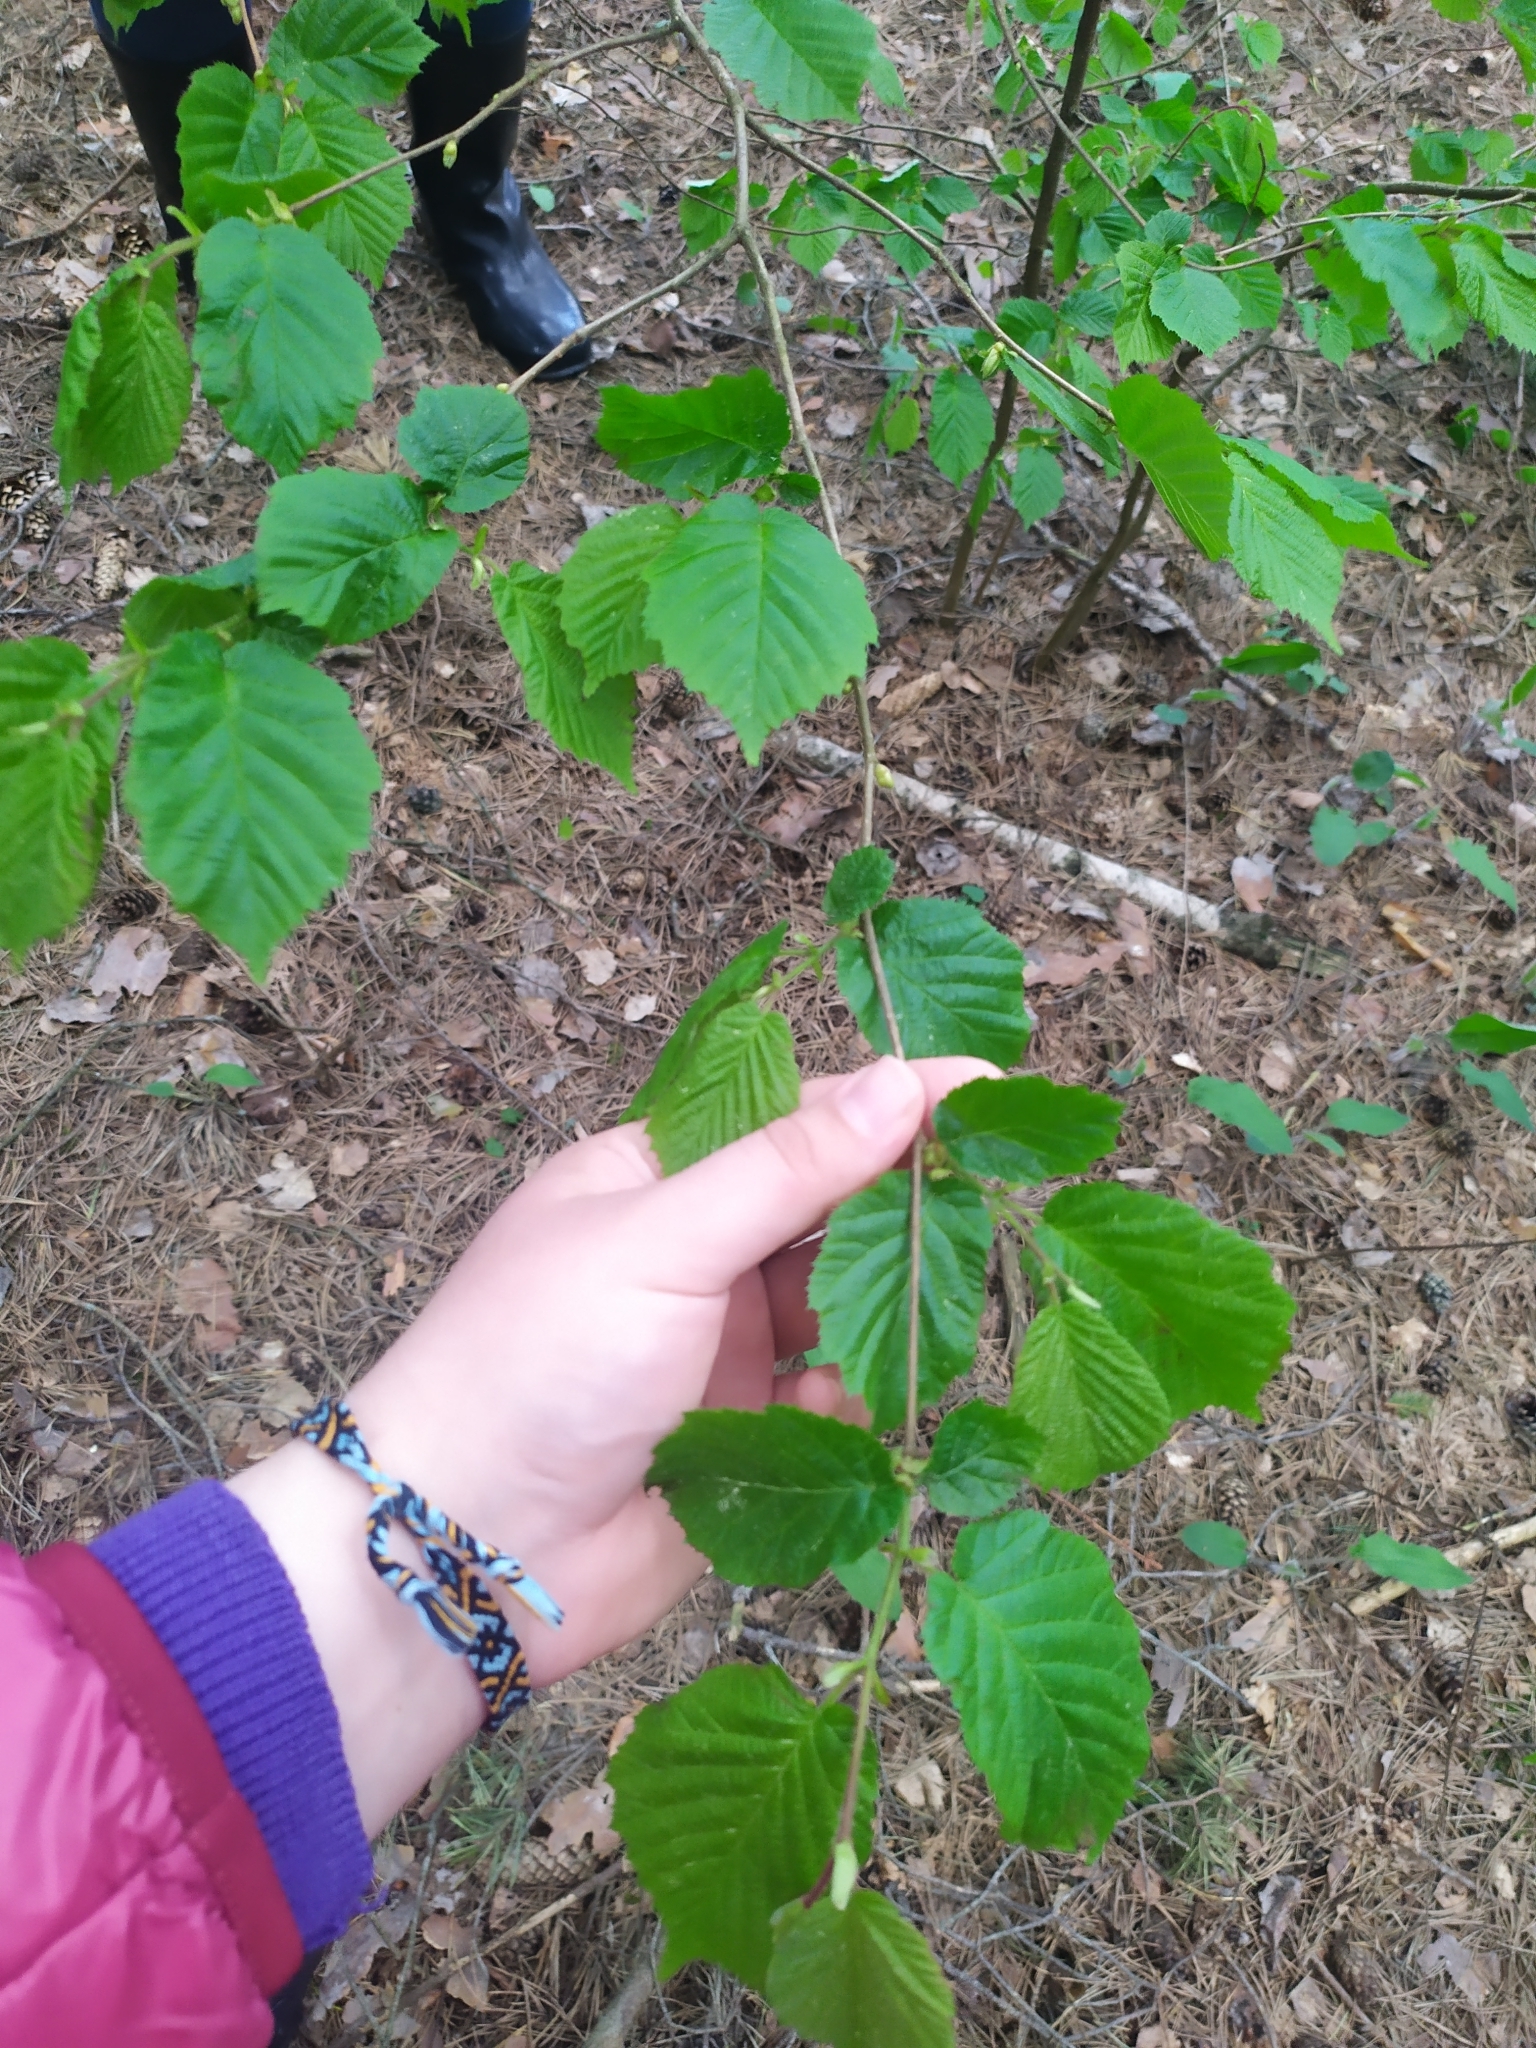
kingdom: Plantae
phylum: Tracheophyta
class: Magnoliopsida
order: Fagales
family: Betulaceae
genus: Corylus
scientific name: Corylus avellana
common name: European hazel
